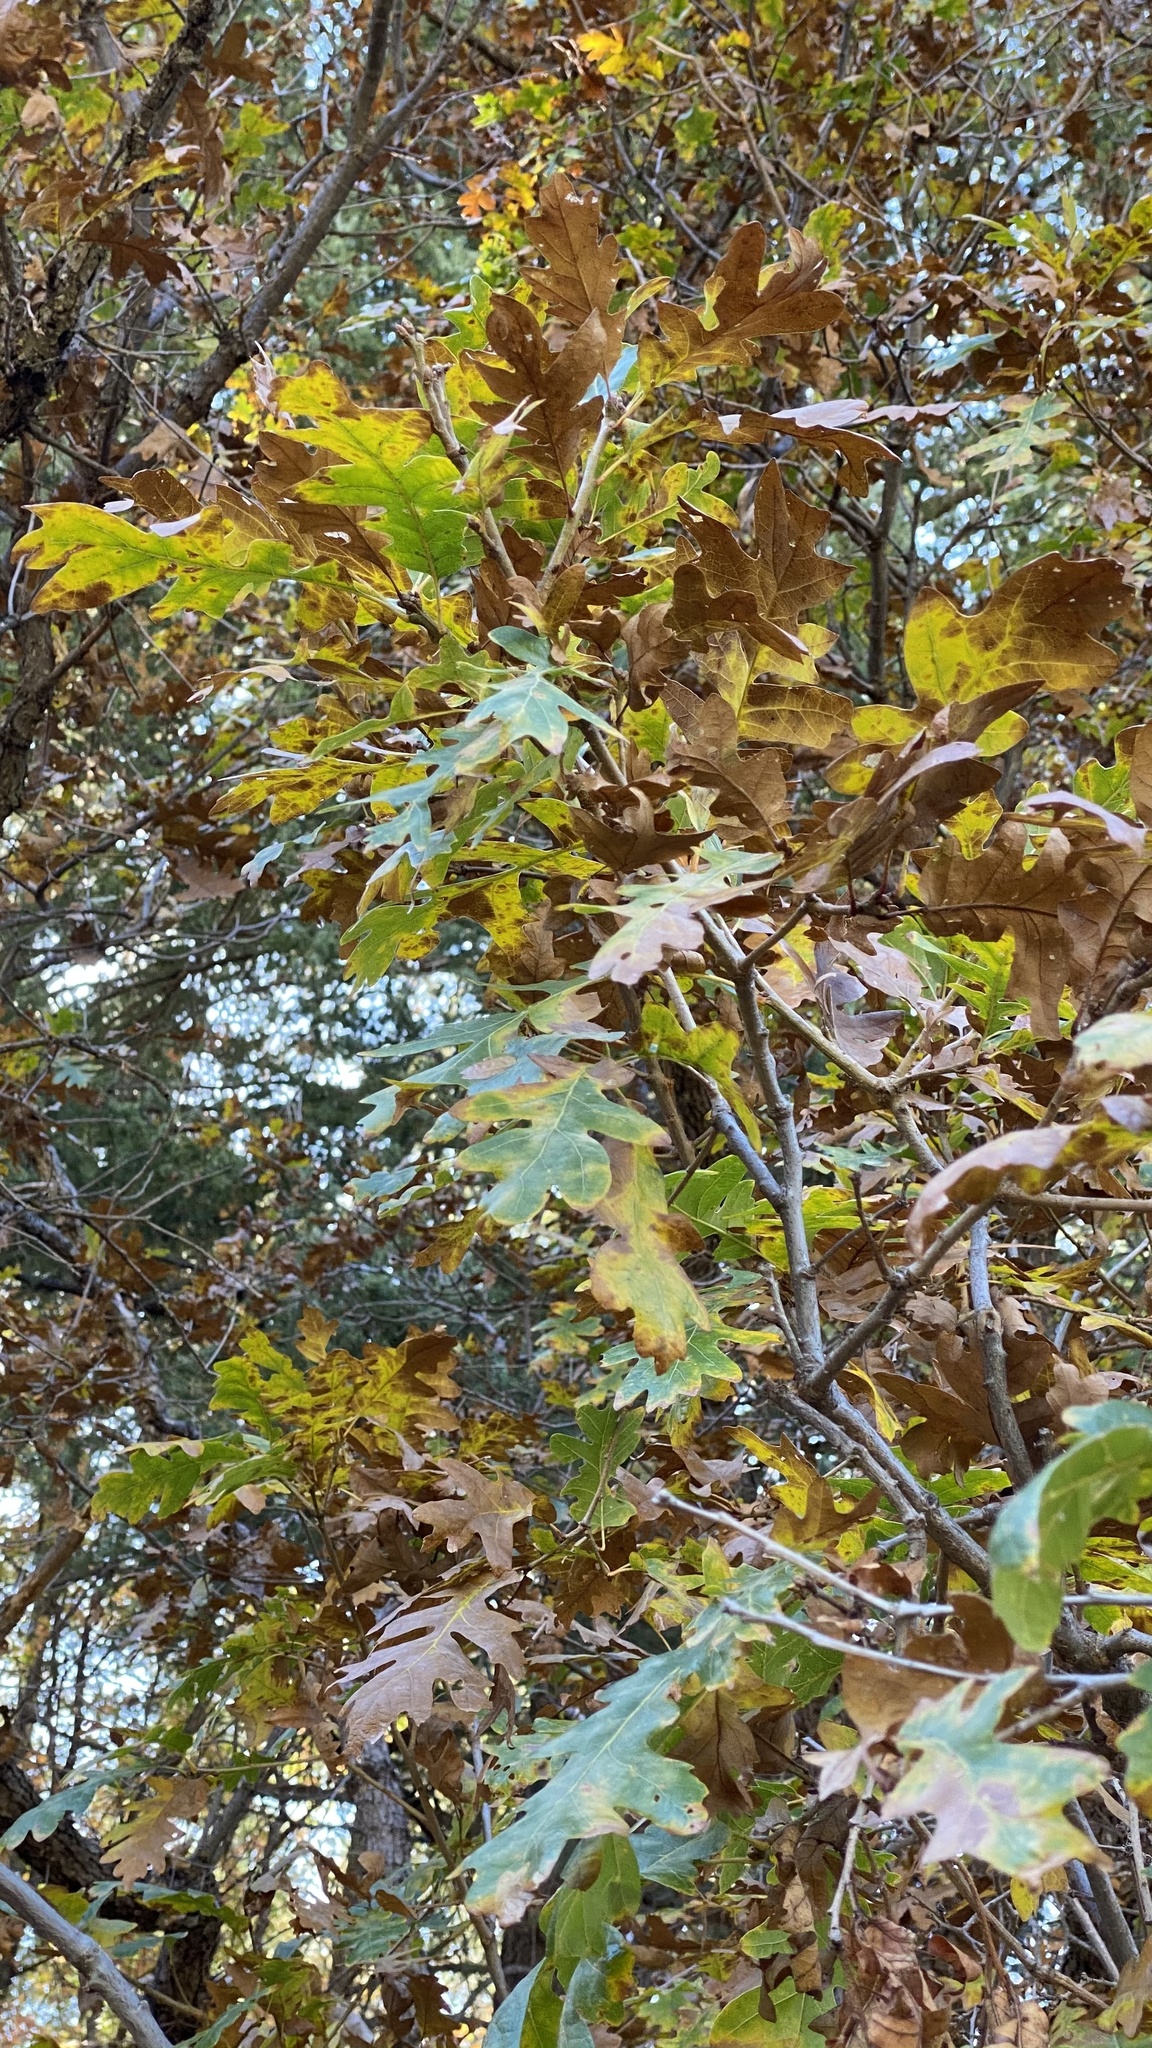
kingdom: Plantae
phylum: Tracheophyta
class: Magnoliopsida
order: Fagales
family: Fagaceae
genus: Quercus
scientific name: Quercus gambelii
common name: Gambel oak
